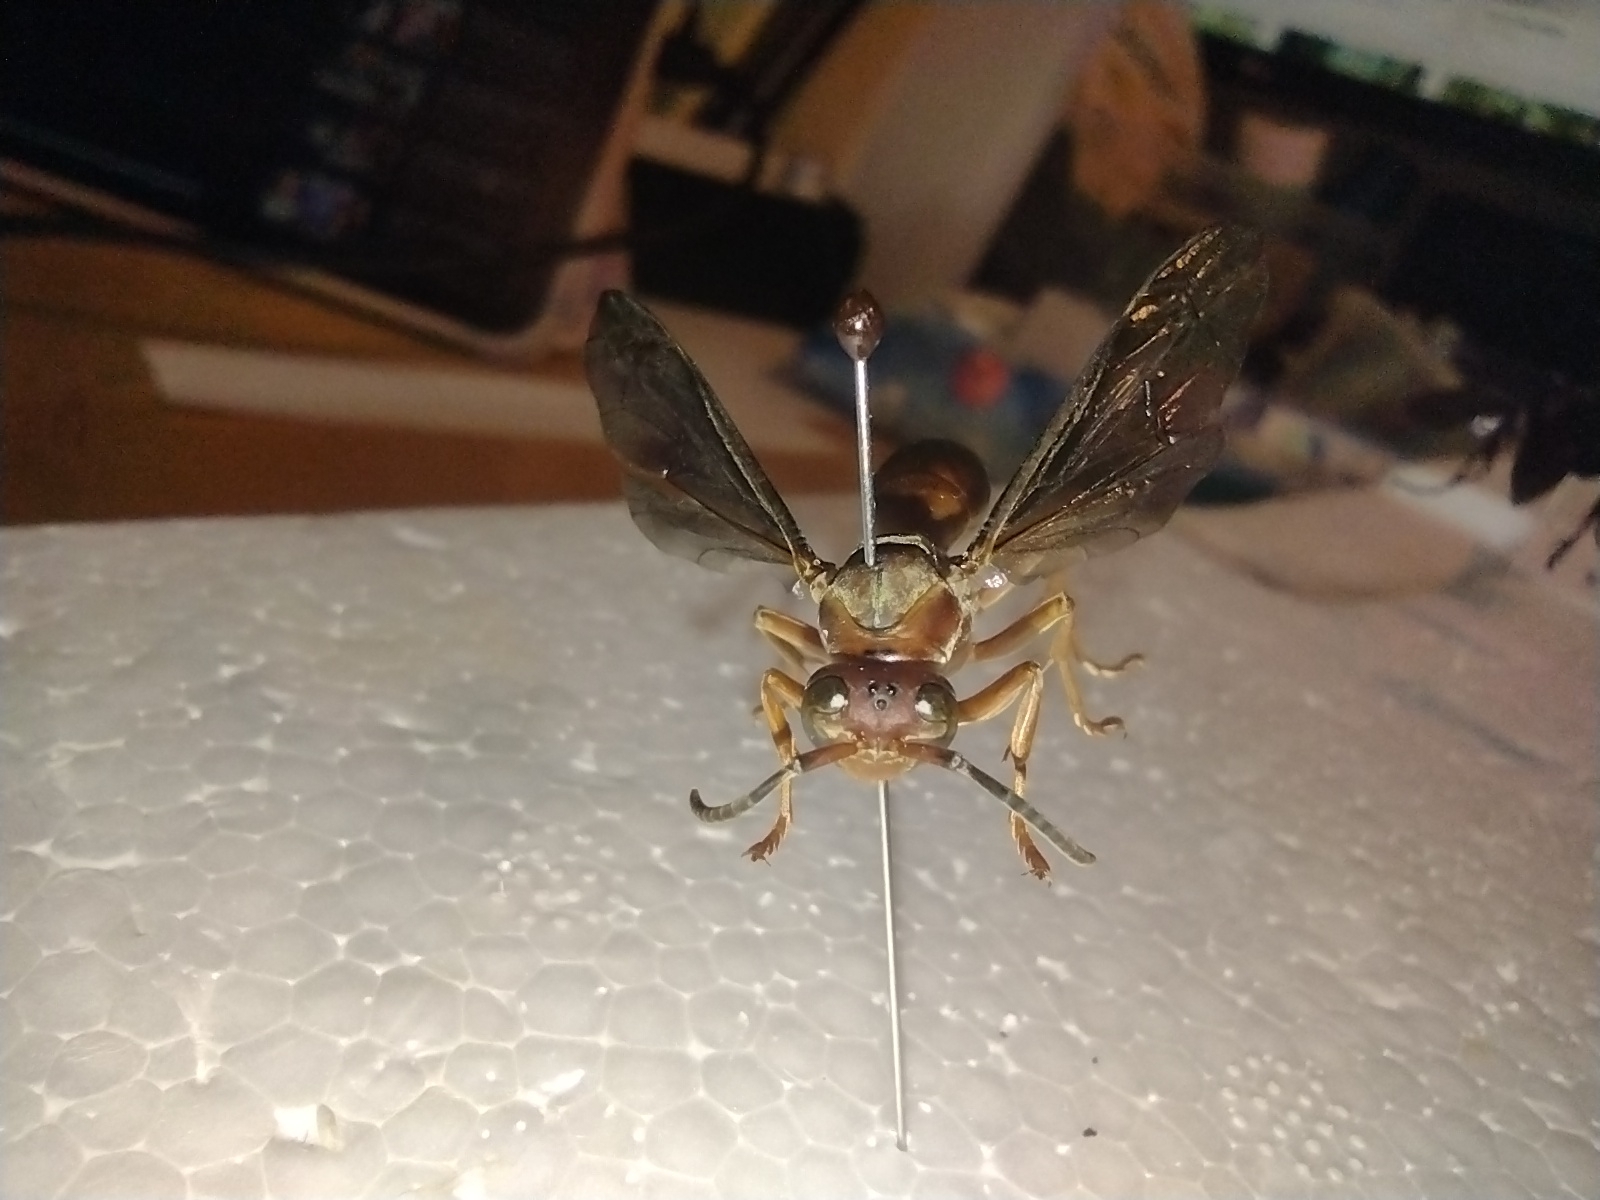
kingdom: Animalia
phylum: Arthropoda
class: Insecta
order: Hymenoptera
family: Eumenidae
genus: Polistes
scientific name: Polistes metricus
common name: Metric paper wasp
